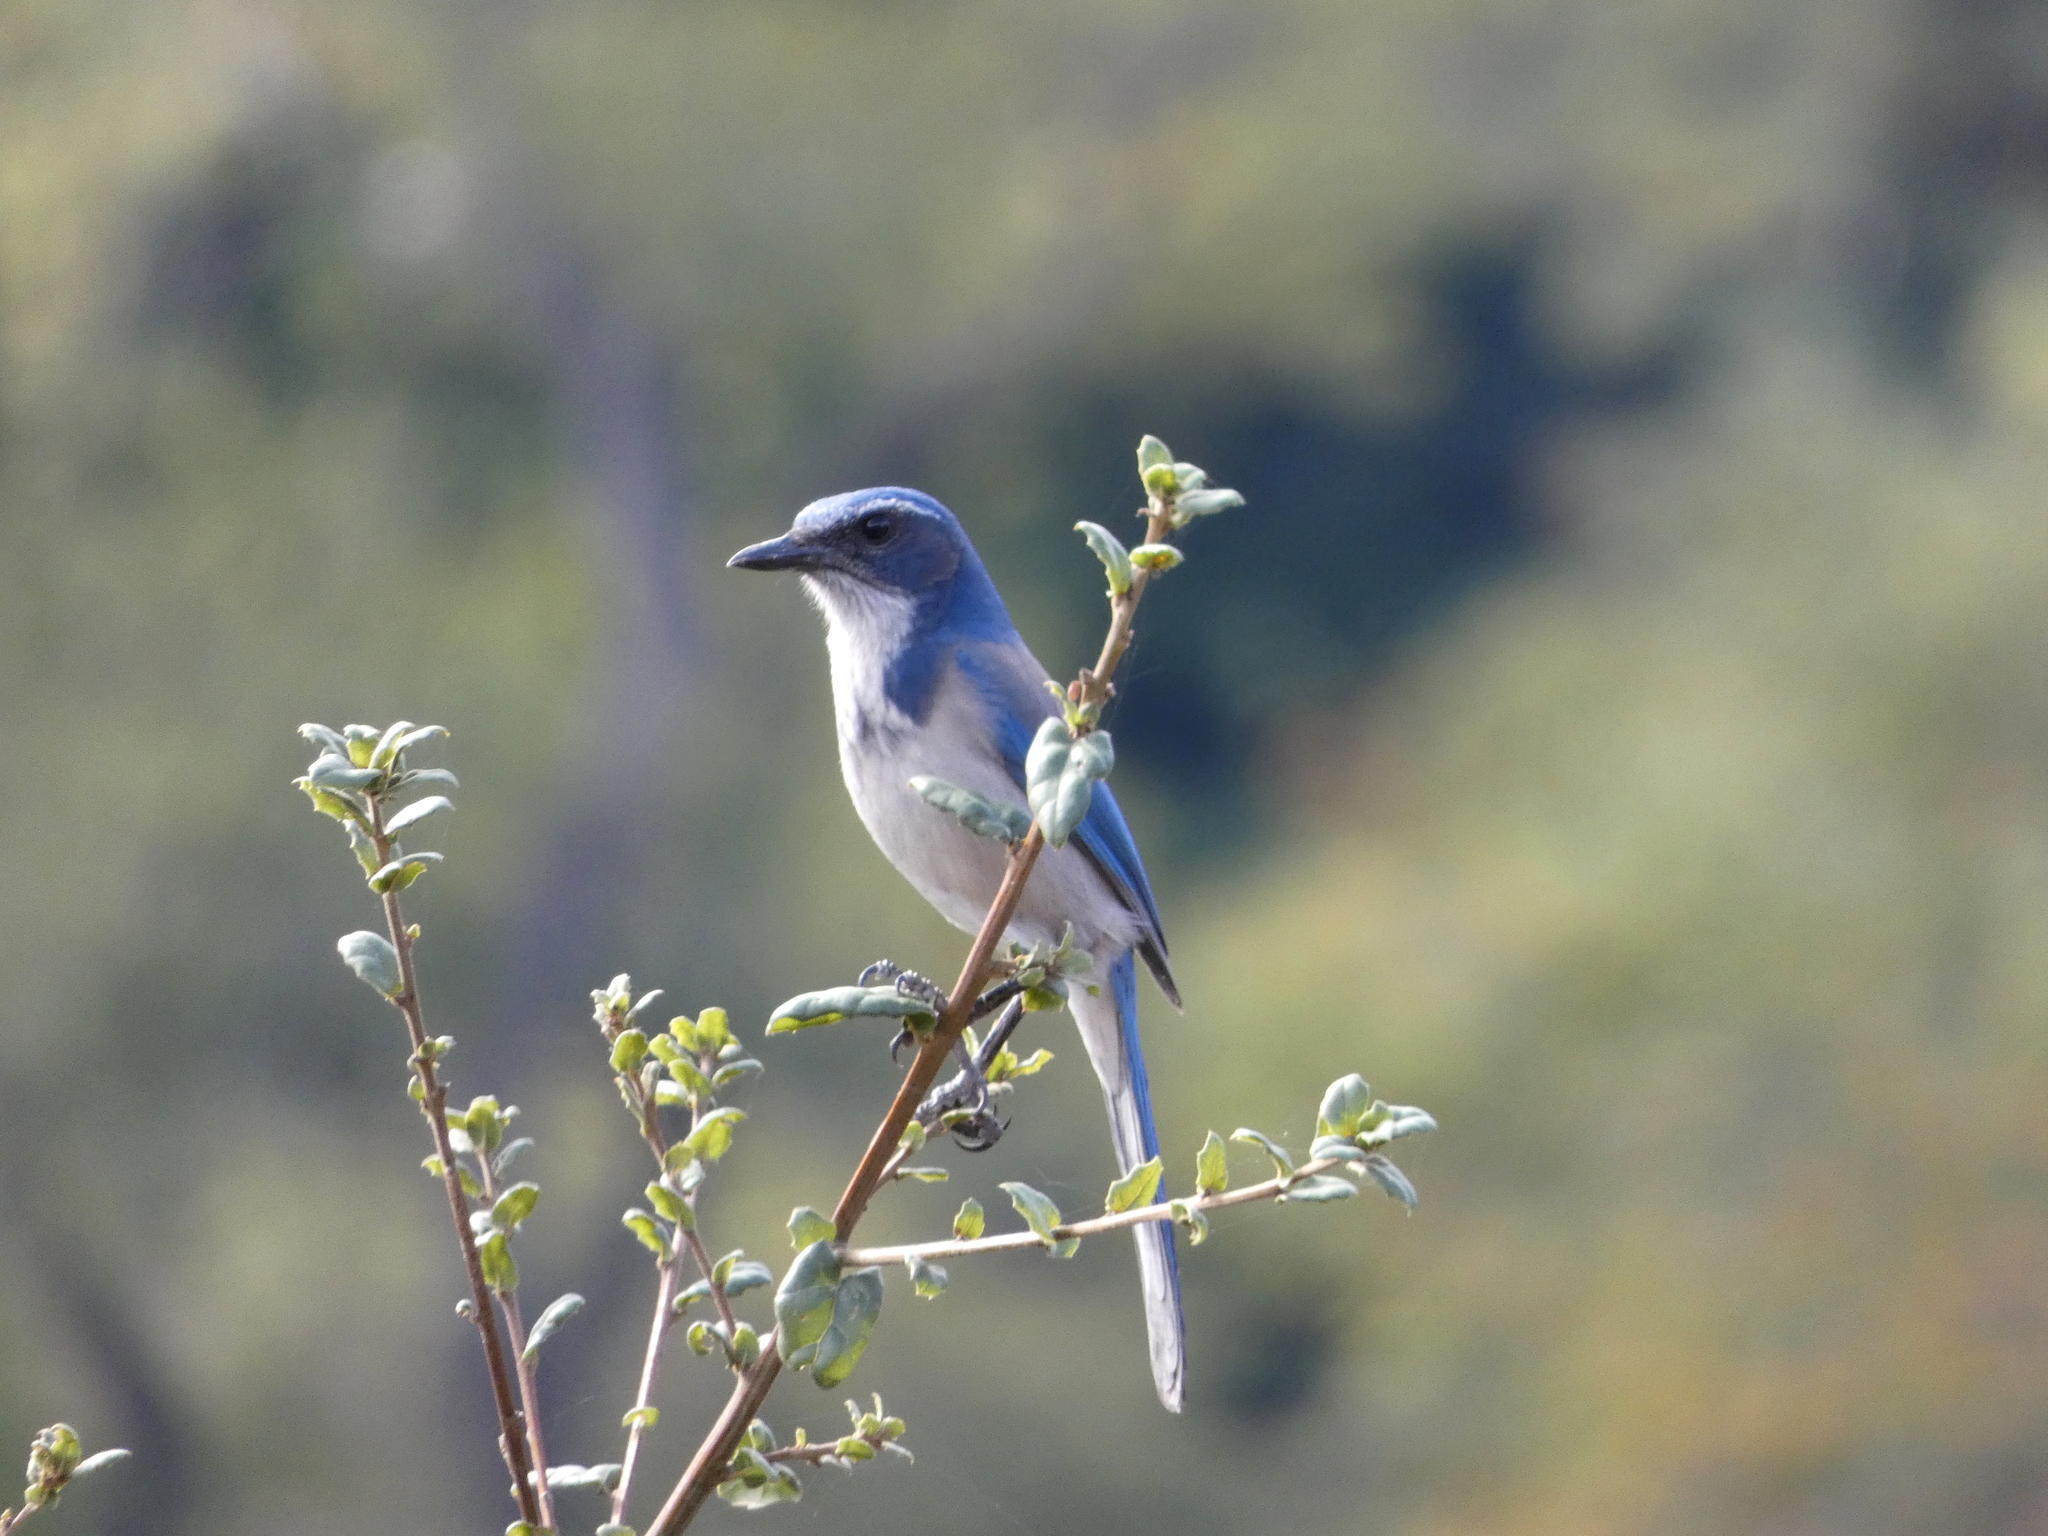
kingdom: Animalia
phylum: Chordata
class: Aves
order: Passeriformes
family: Corvidae
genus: Aphelocoma
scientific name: Aphelocoma californica
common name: California scrub-jay
